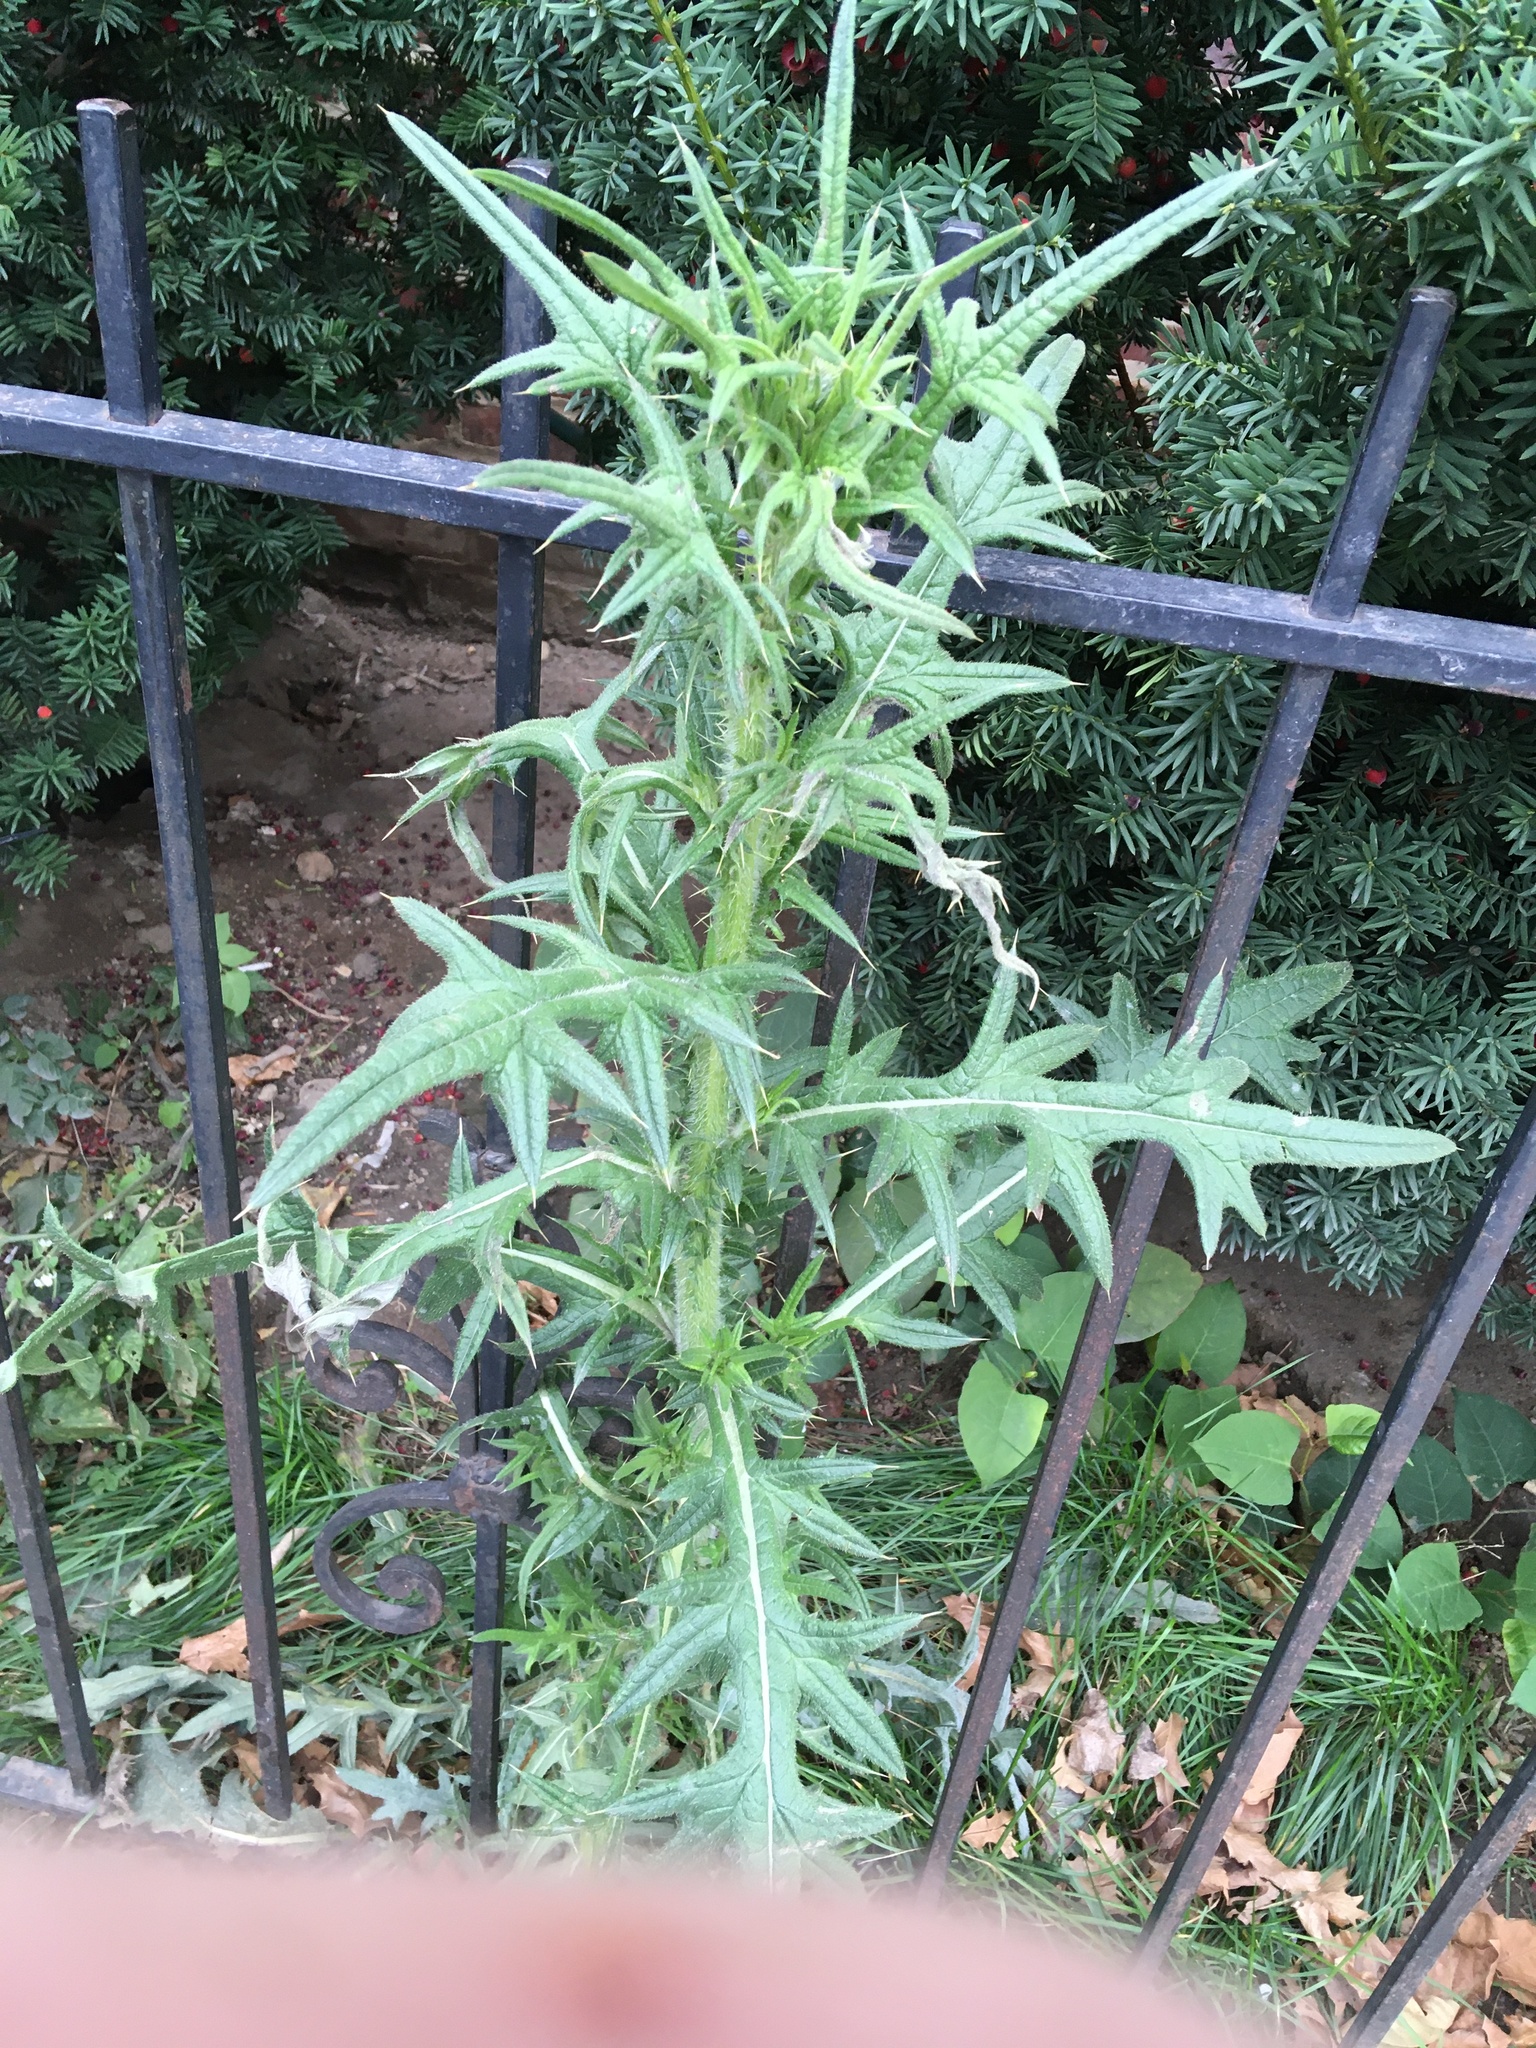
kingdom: Plantae
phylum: Tracheophyta
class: Magnoliopsida
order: Asterales
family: Asteraceae
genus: Cirsium
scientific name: Cirsium vulgare
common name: Bull thistle
